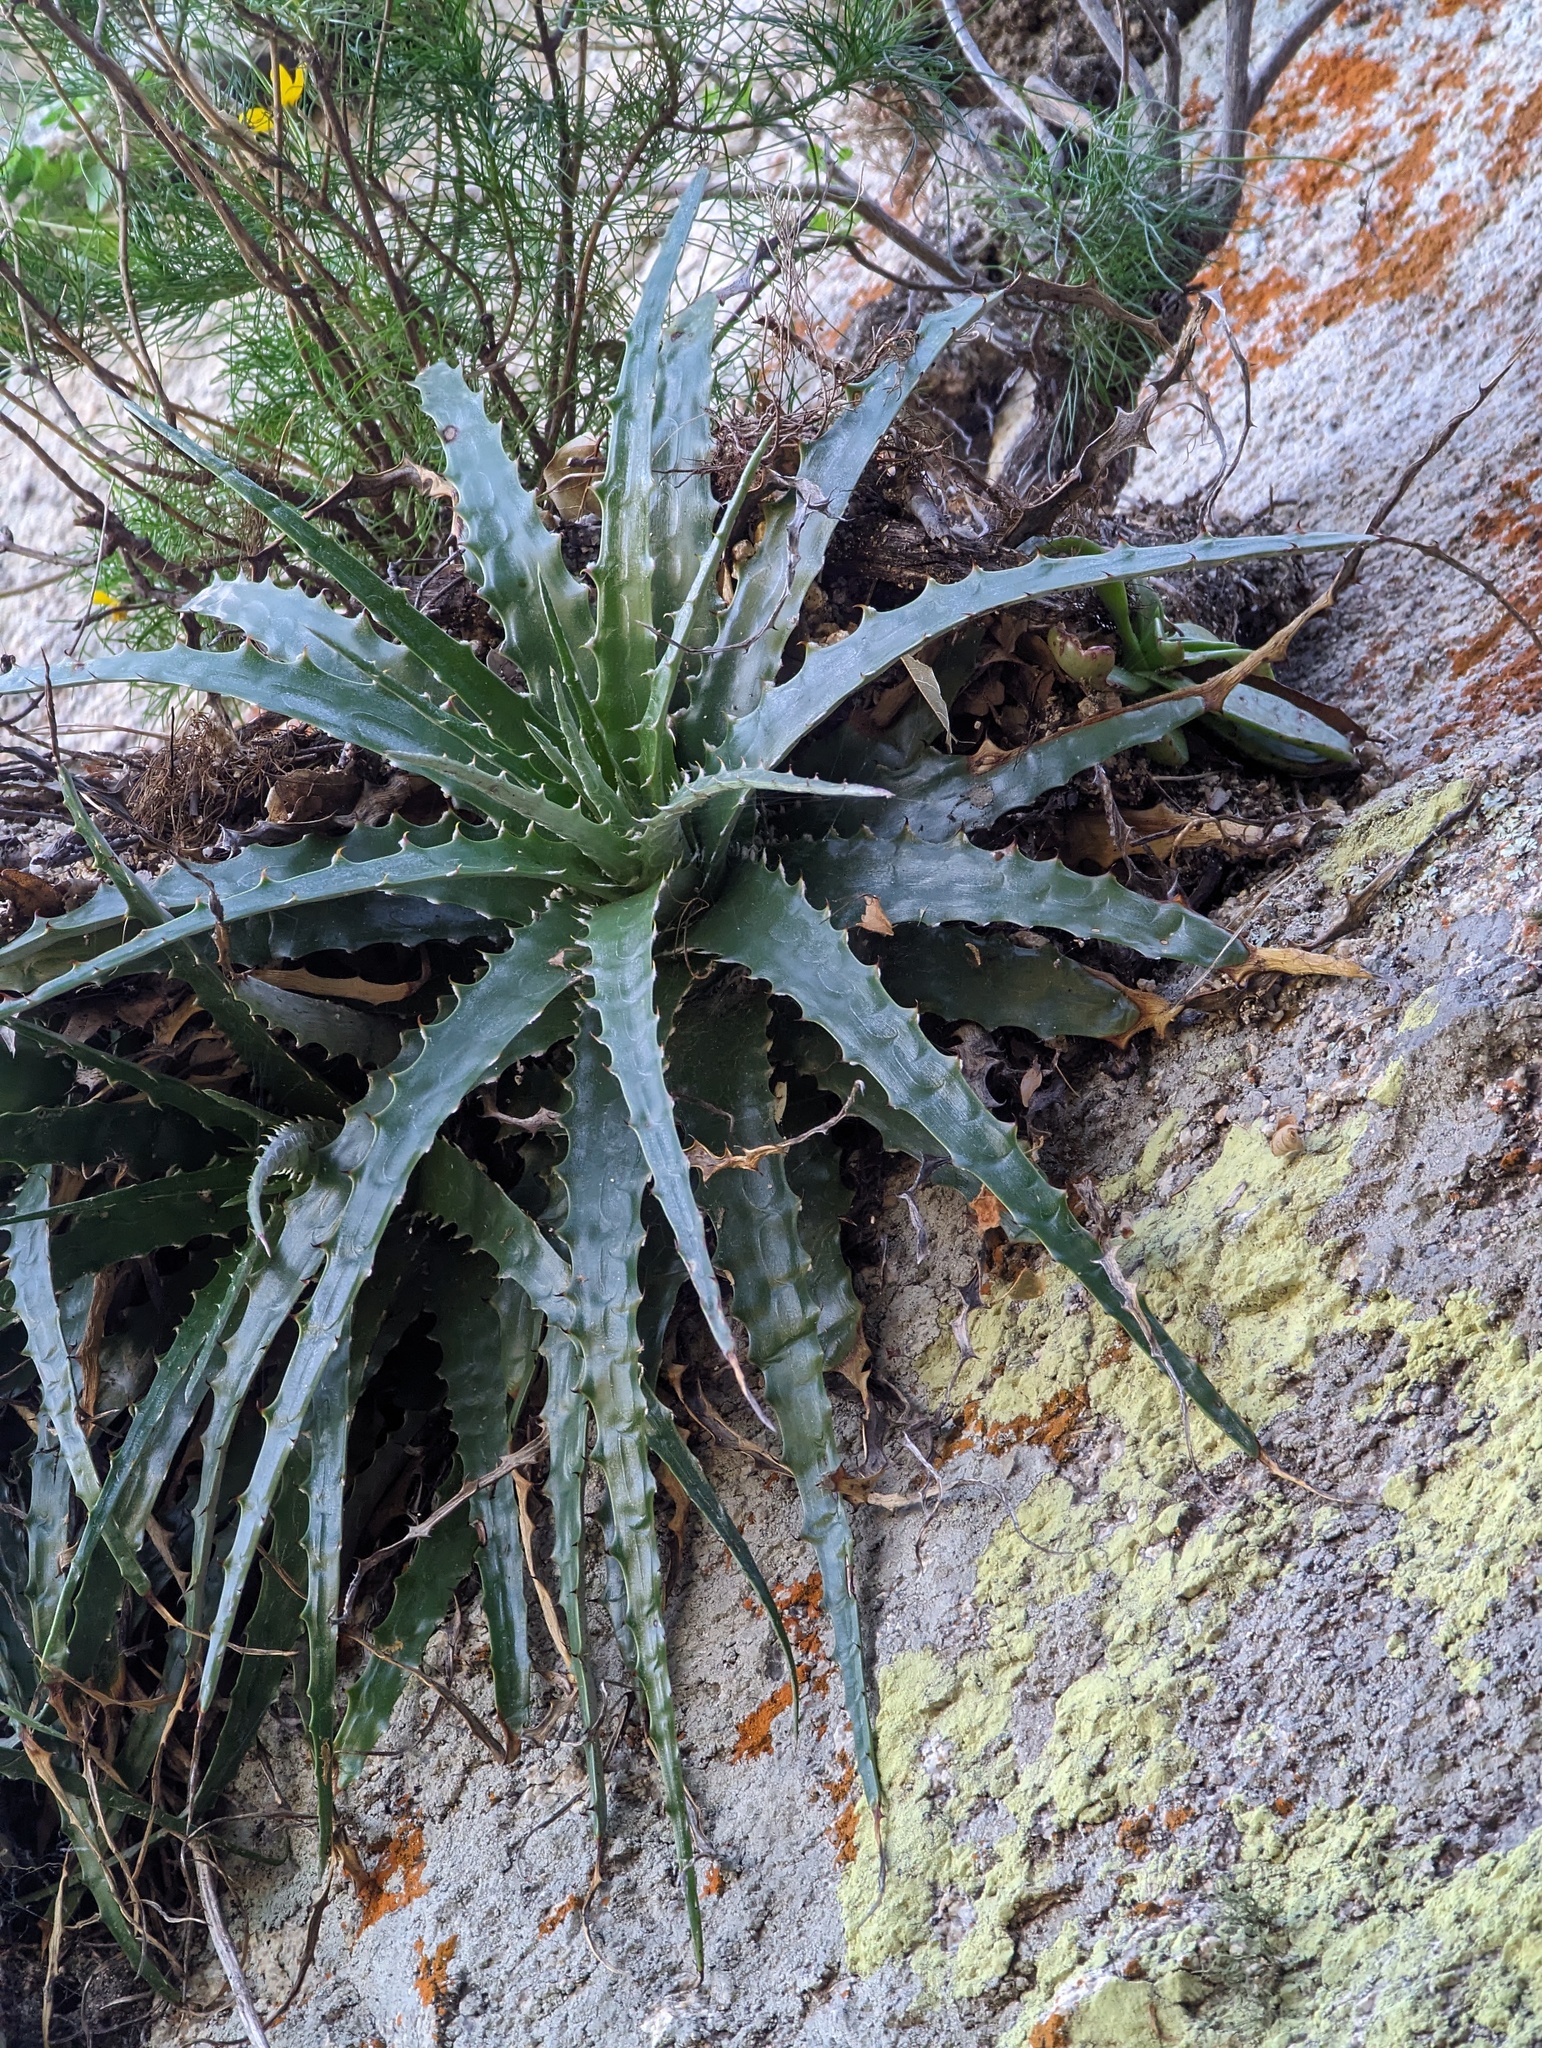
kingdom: Plantae
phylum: Tracheophyta
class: Liliopsida
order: Poales
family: Bromeliaceae
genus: Hechtia
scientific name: Hechtia montana
